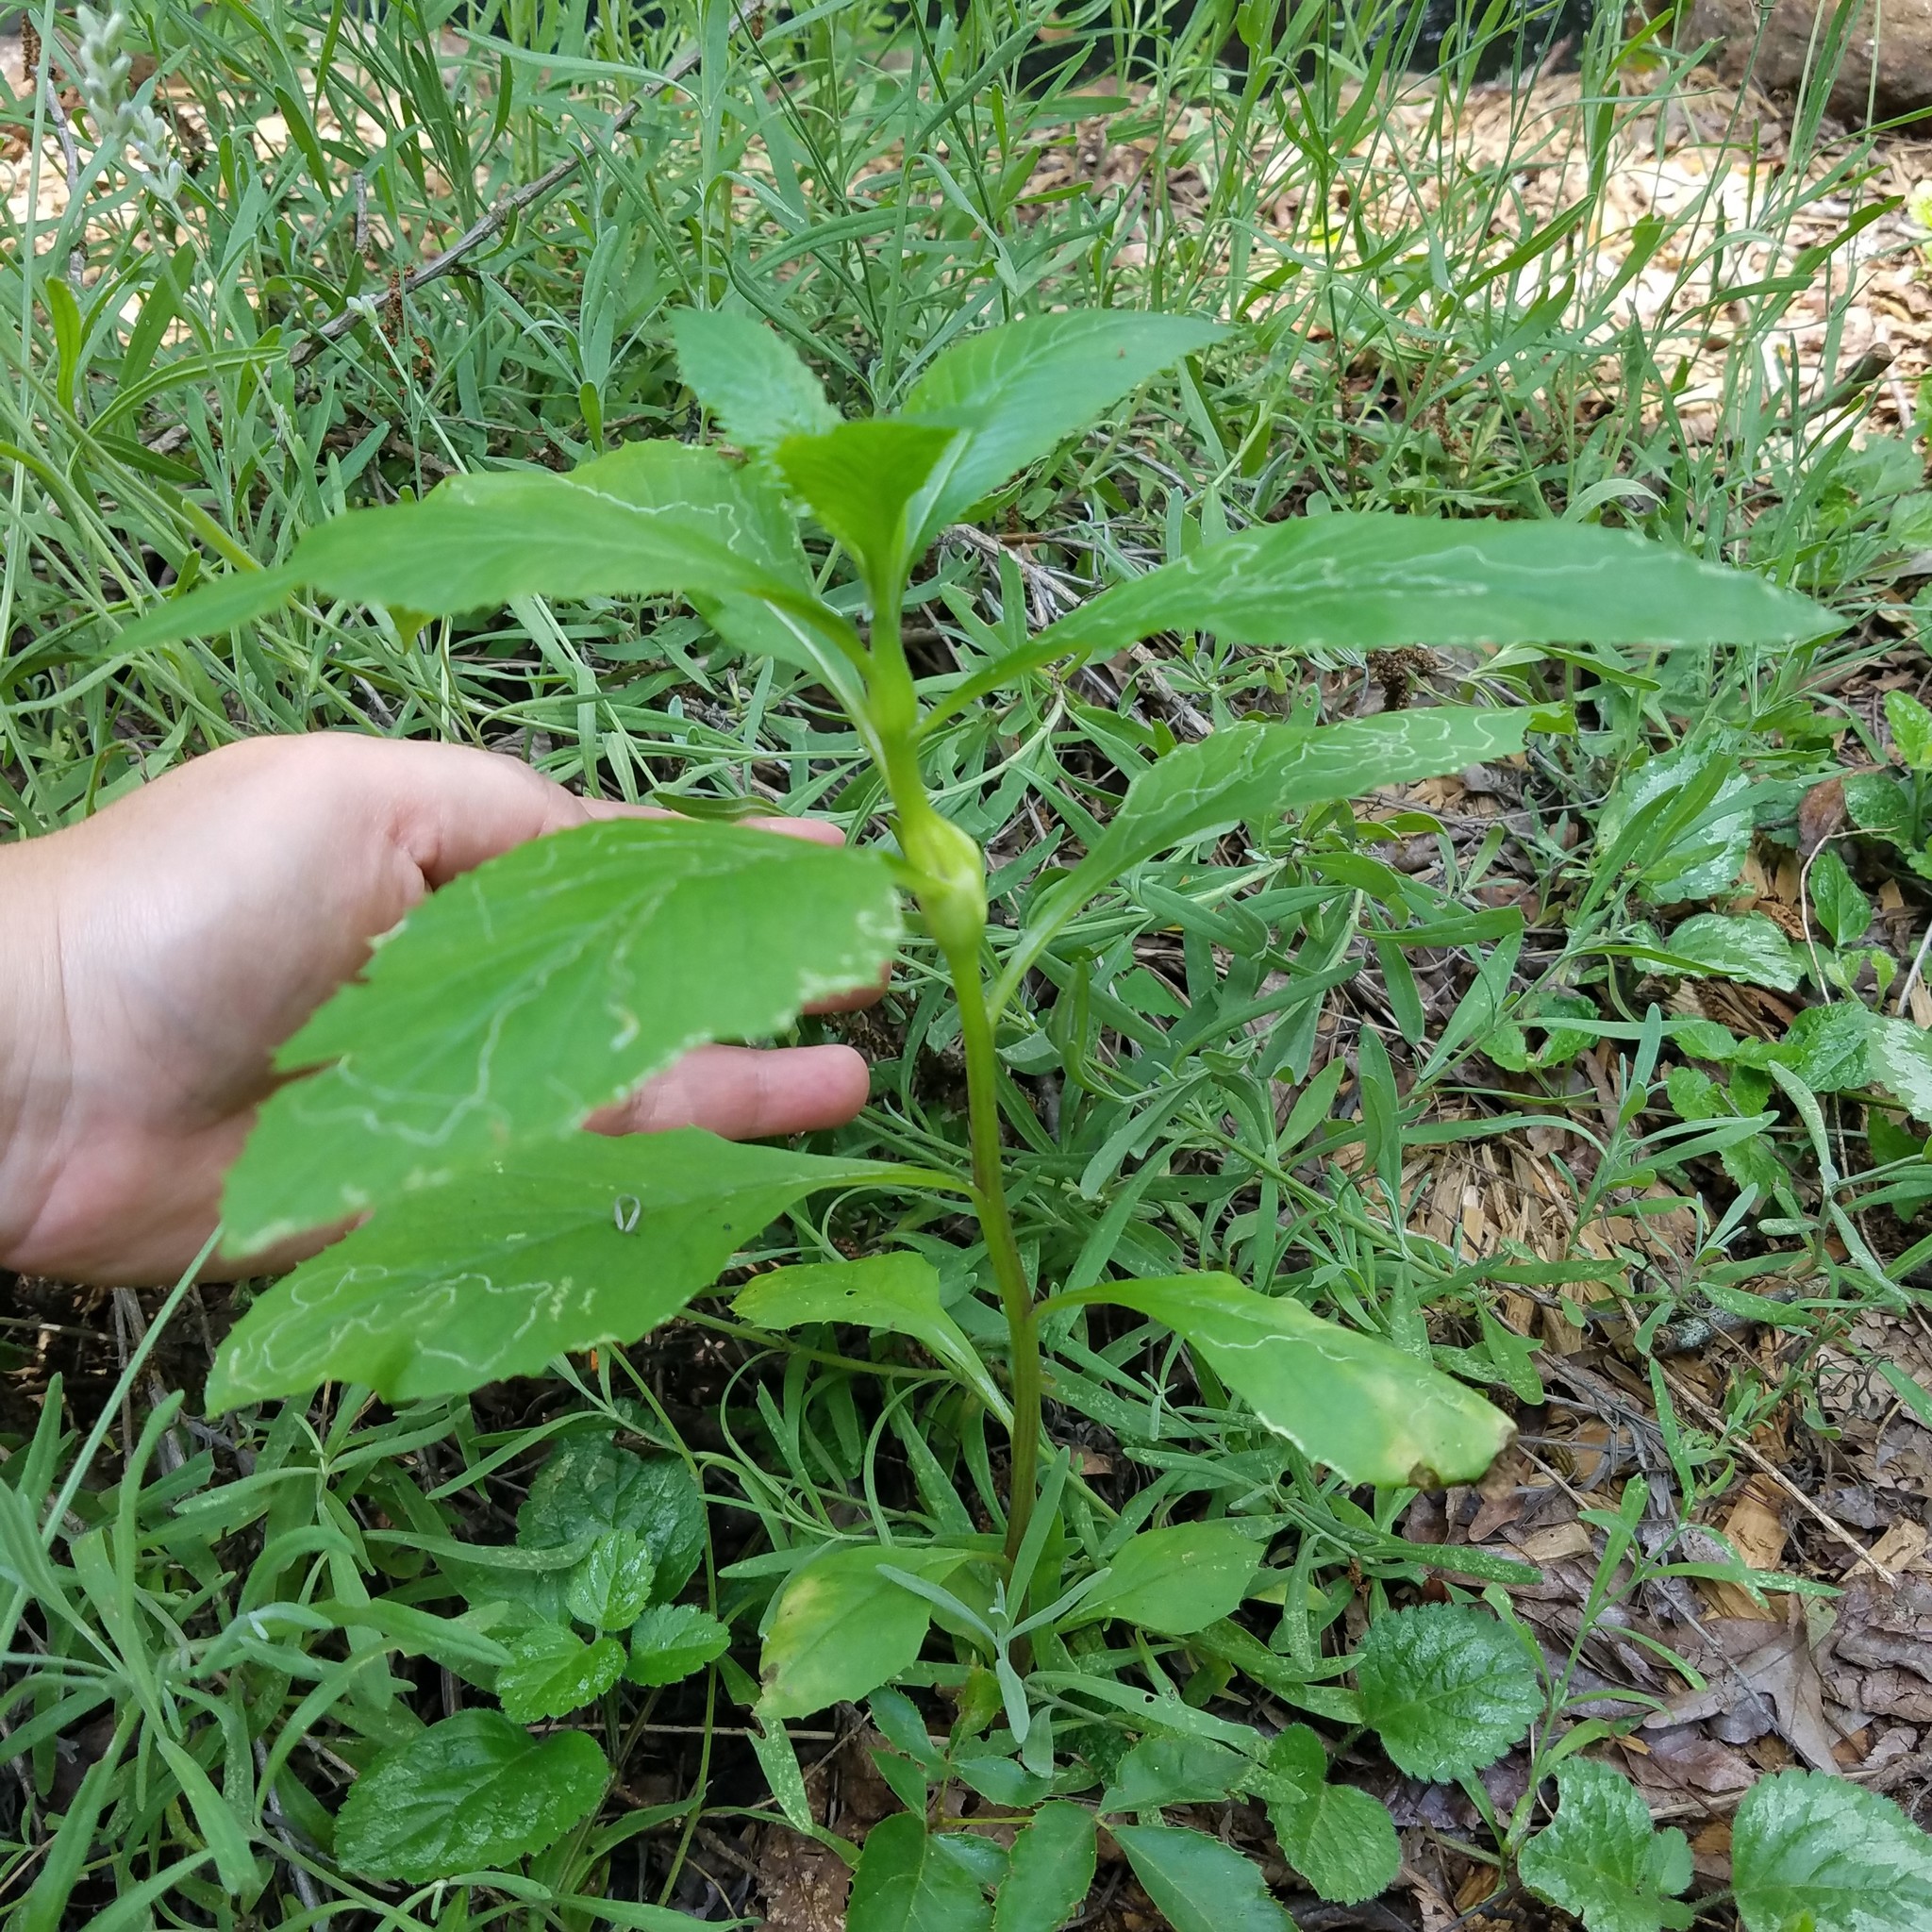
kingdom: Plantae
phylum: Tracheophyta
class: Magnoliopsida
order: Asterales
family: Asteraceae
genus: Erechtites
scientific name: Erechtites hieraciifolius
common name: American burnweed
